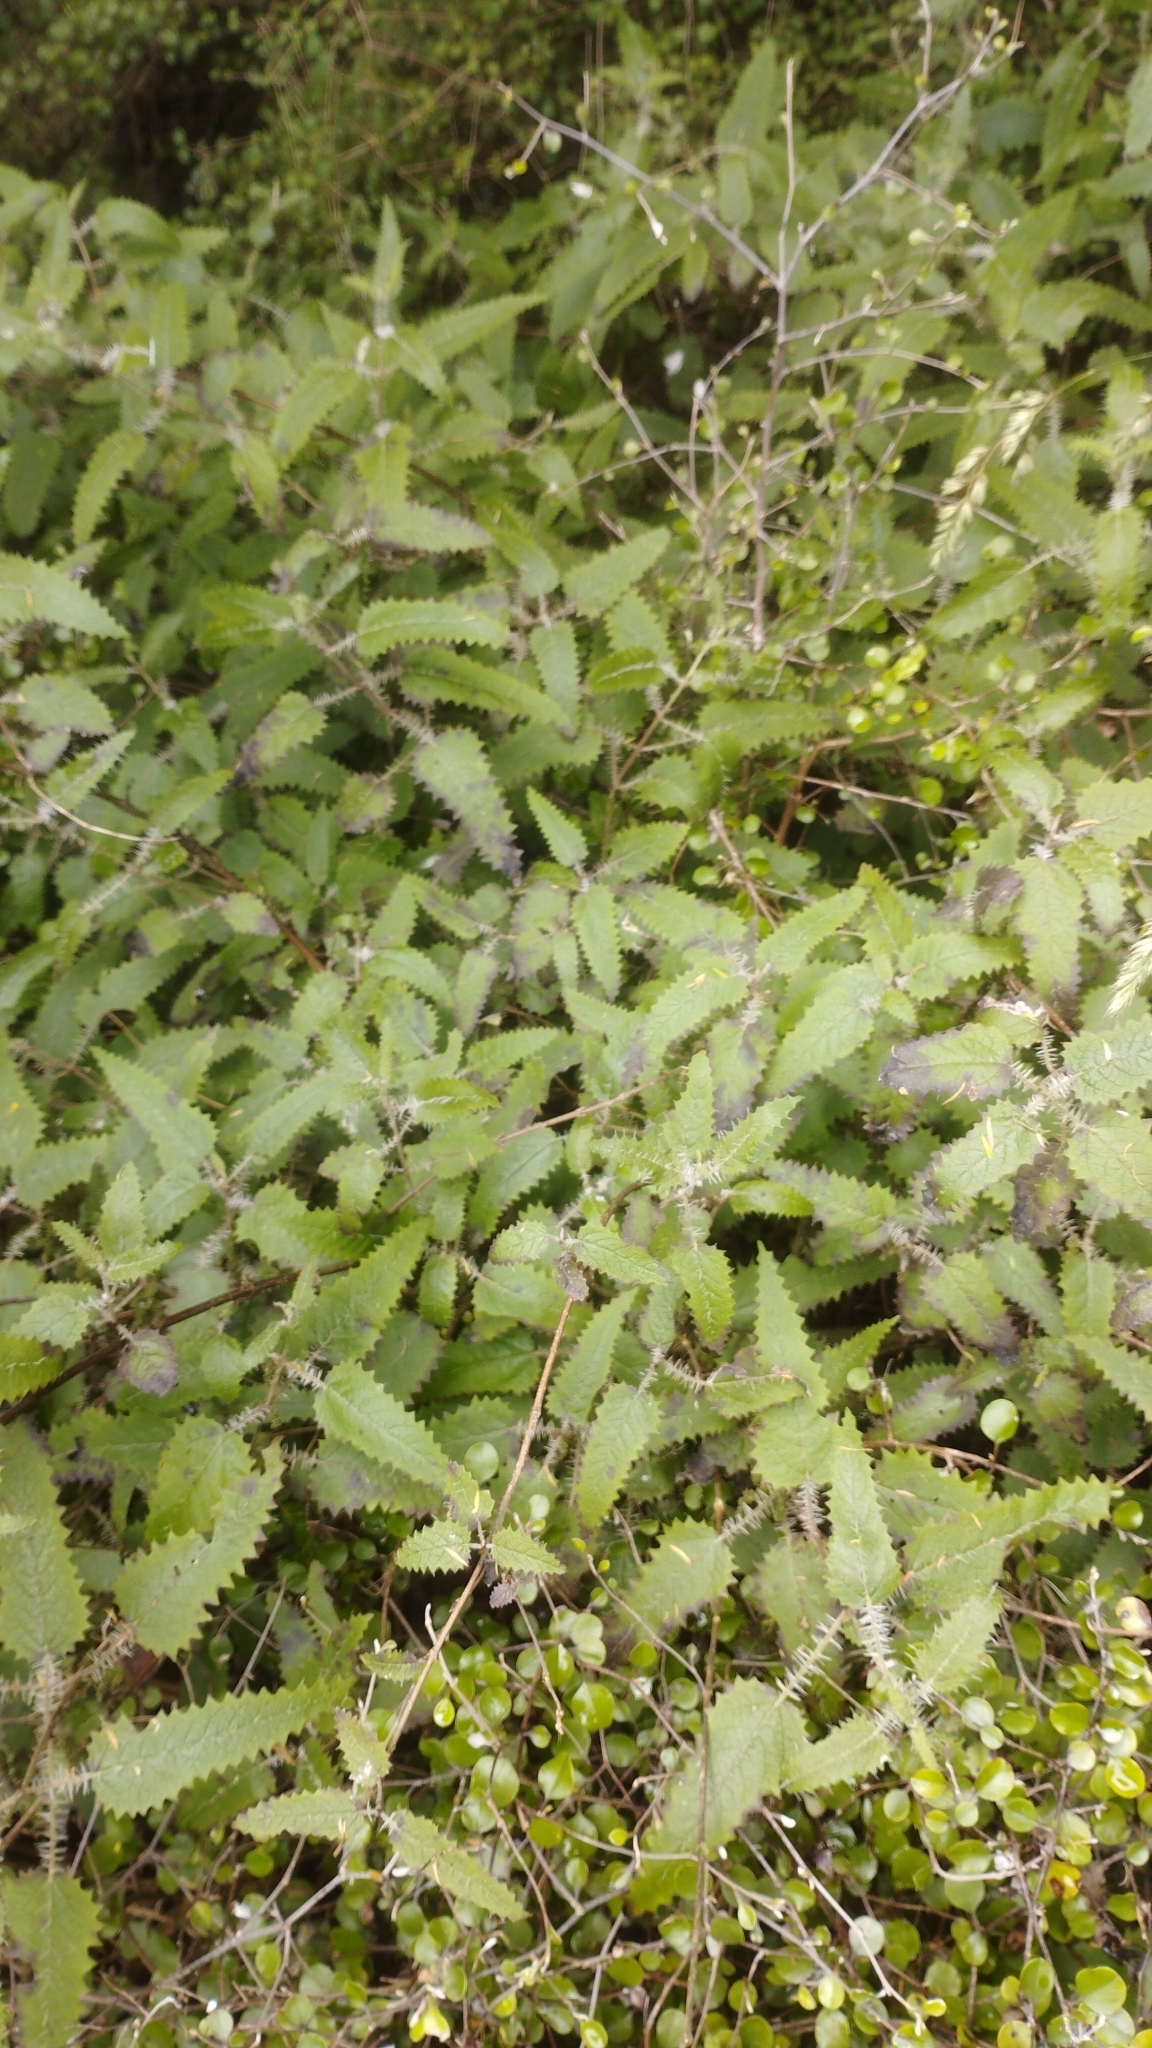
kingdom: Plantae
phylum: Tracheophyta
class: Magnoliopsida
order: Rosales
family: Urticaceae
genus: Urtica
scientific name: Urtica ferox
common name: Tree nettle
